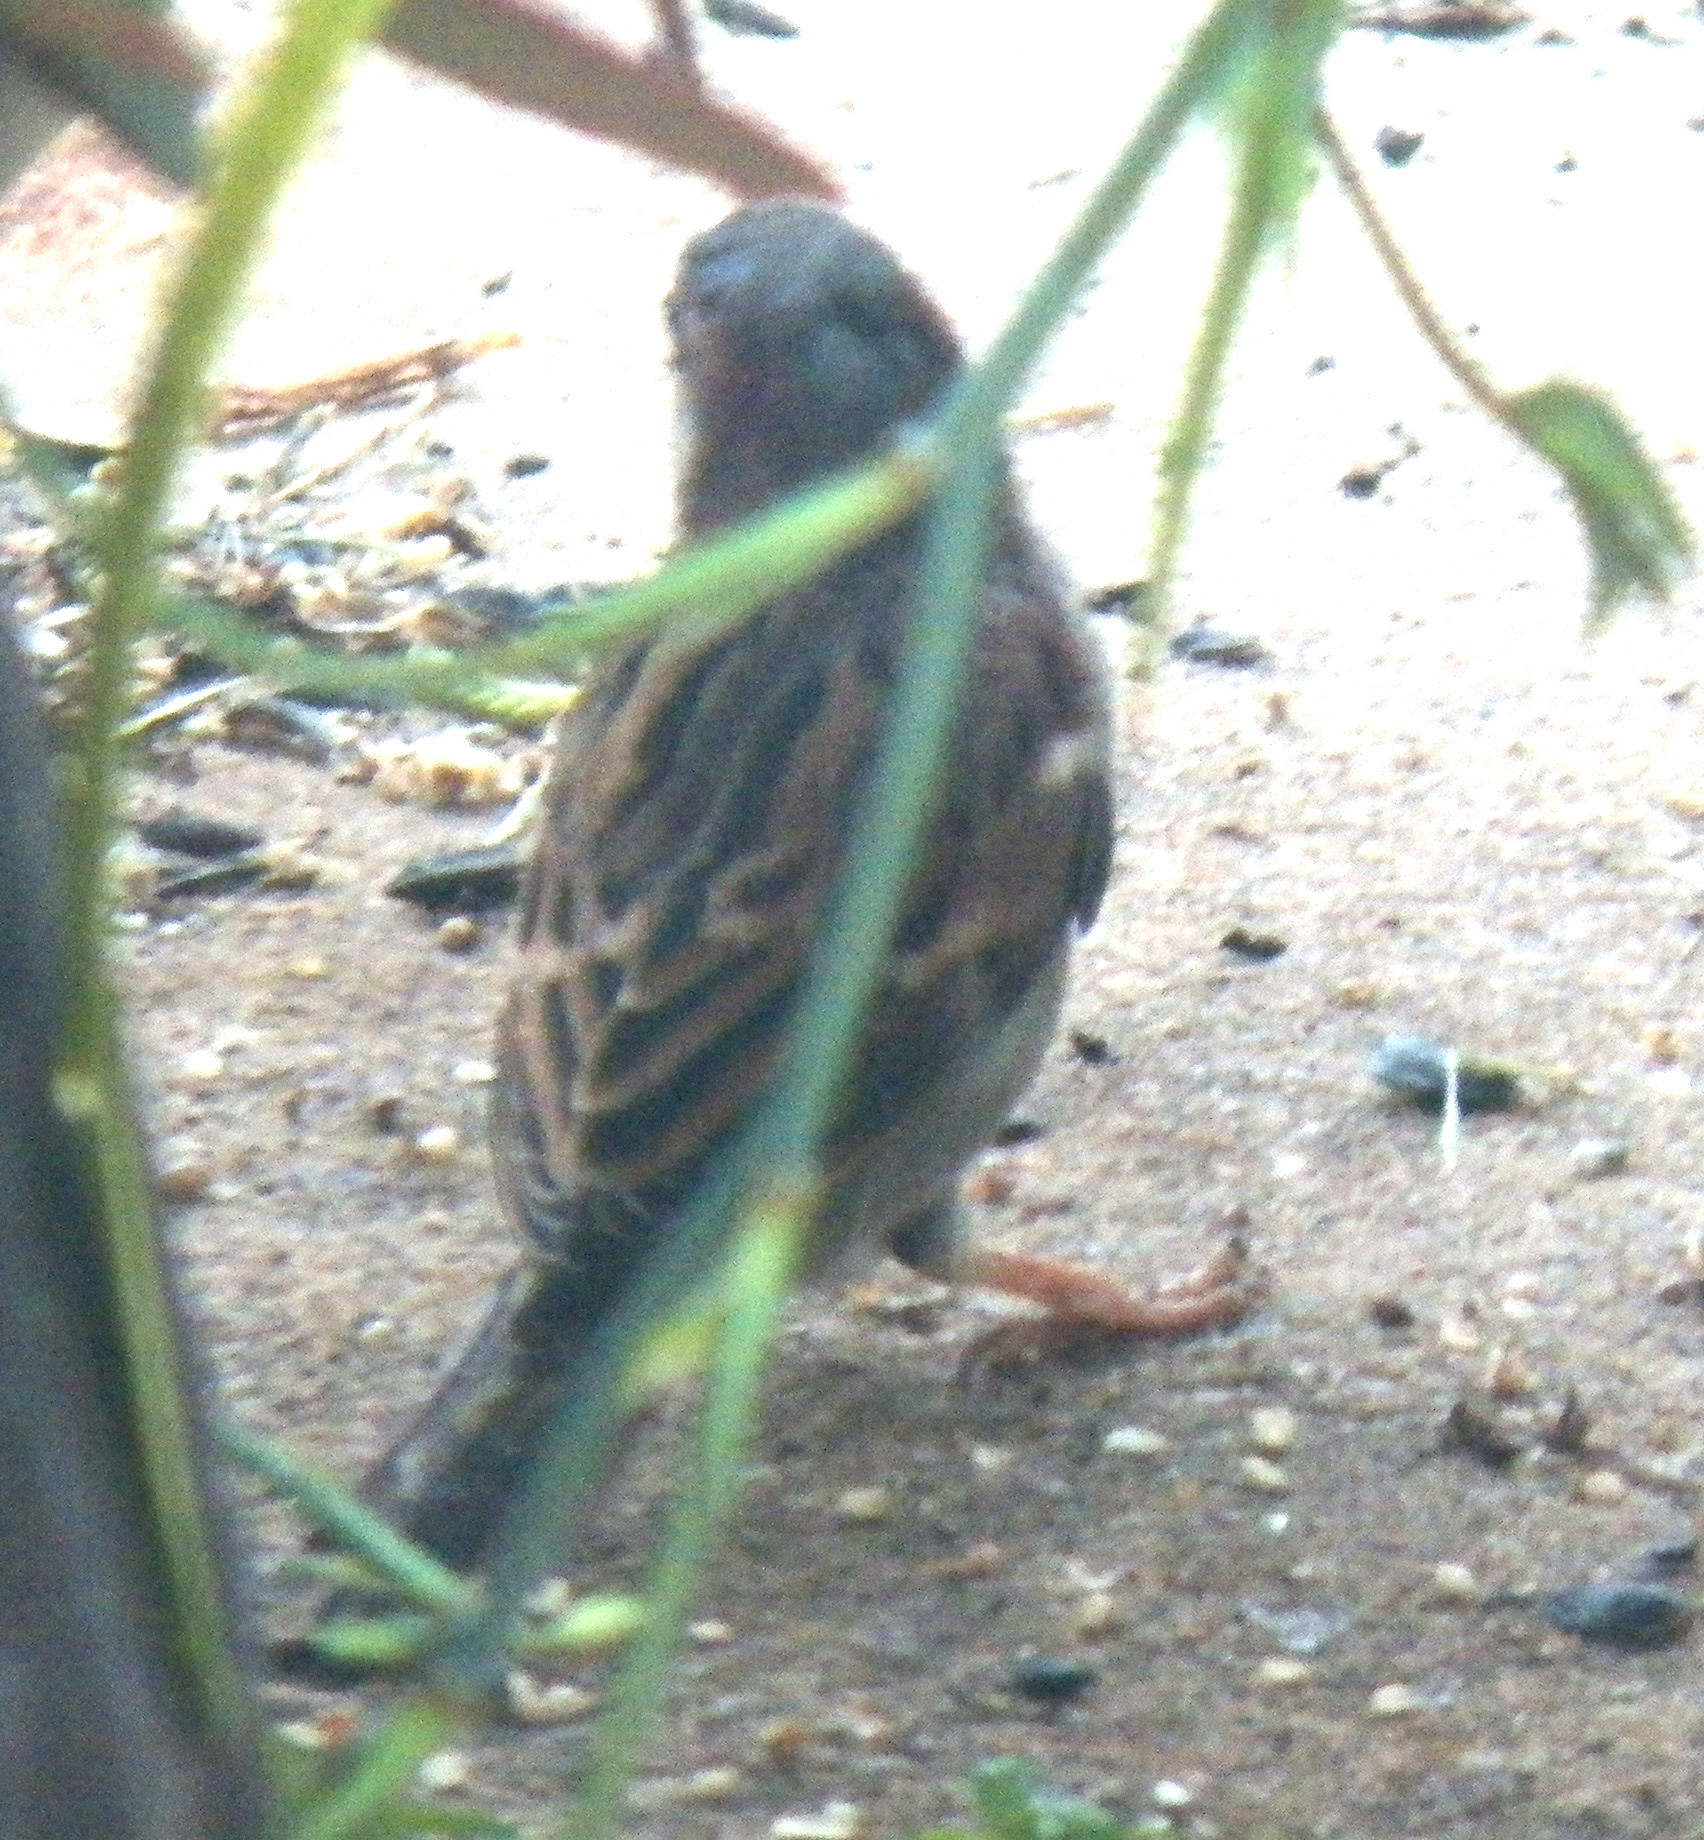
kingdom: Animalia
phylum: Chordata
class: Aves
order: Passeriformes
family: Passeridae
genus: Passer
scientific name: Passer domesticus
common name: House sparrow
